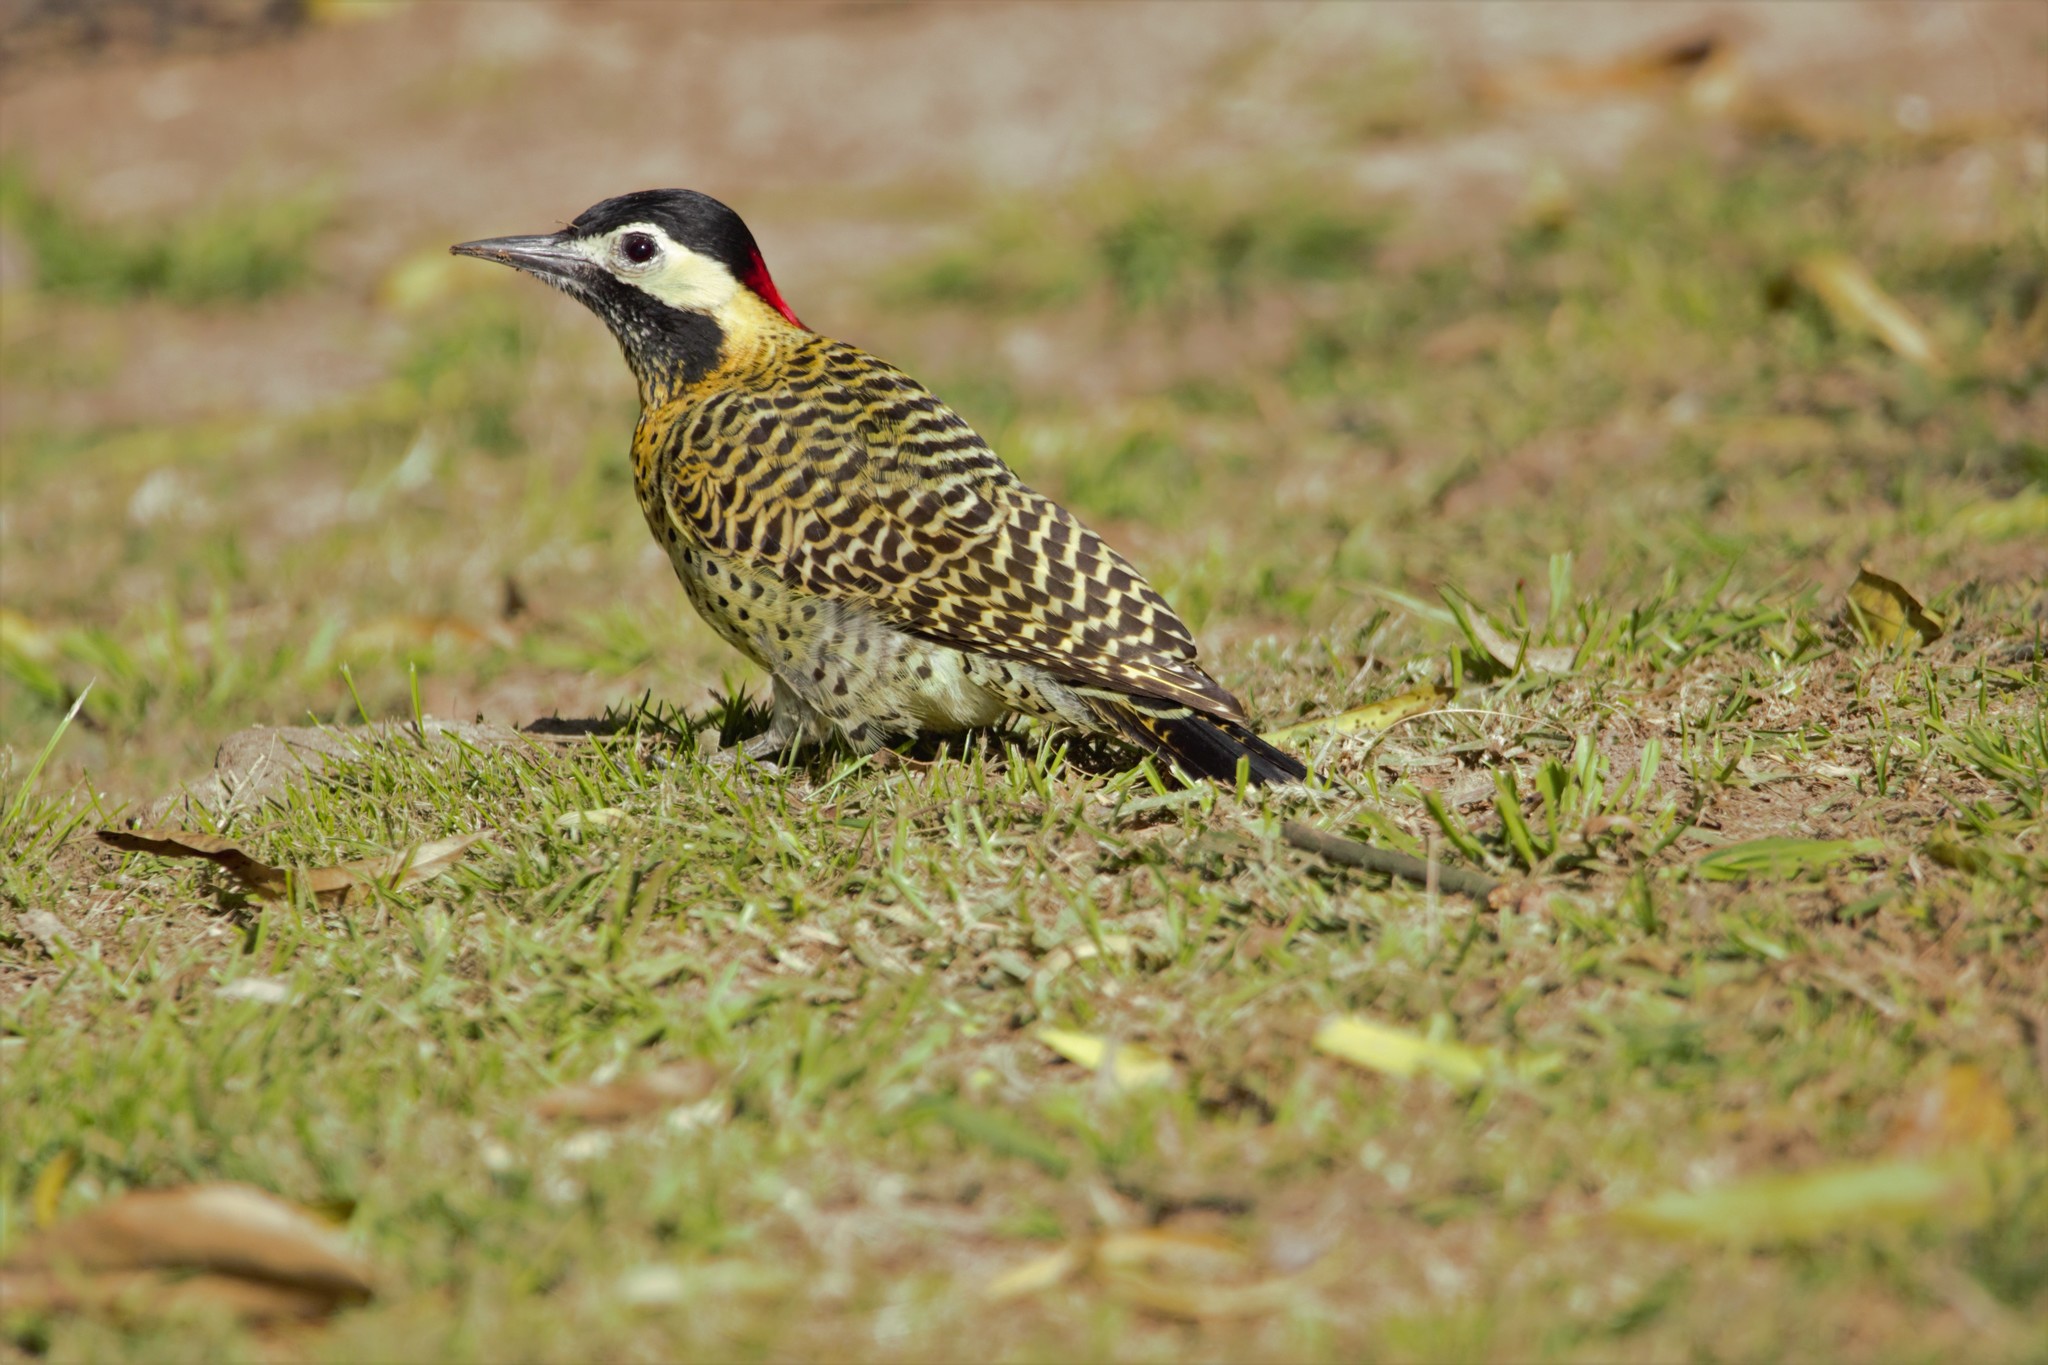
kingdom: Animalia
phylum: Chordata
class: Aves
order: Piciformes
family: Picidae
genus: Colaptes
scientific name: Colaptes melanochloros
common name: Green-barred woodpecker
